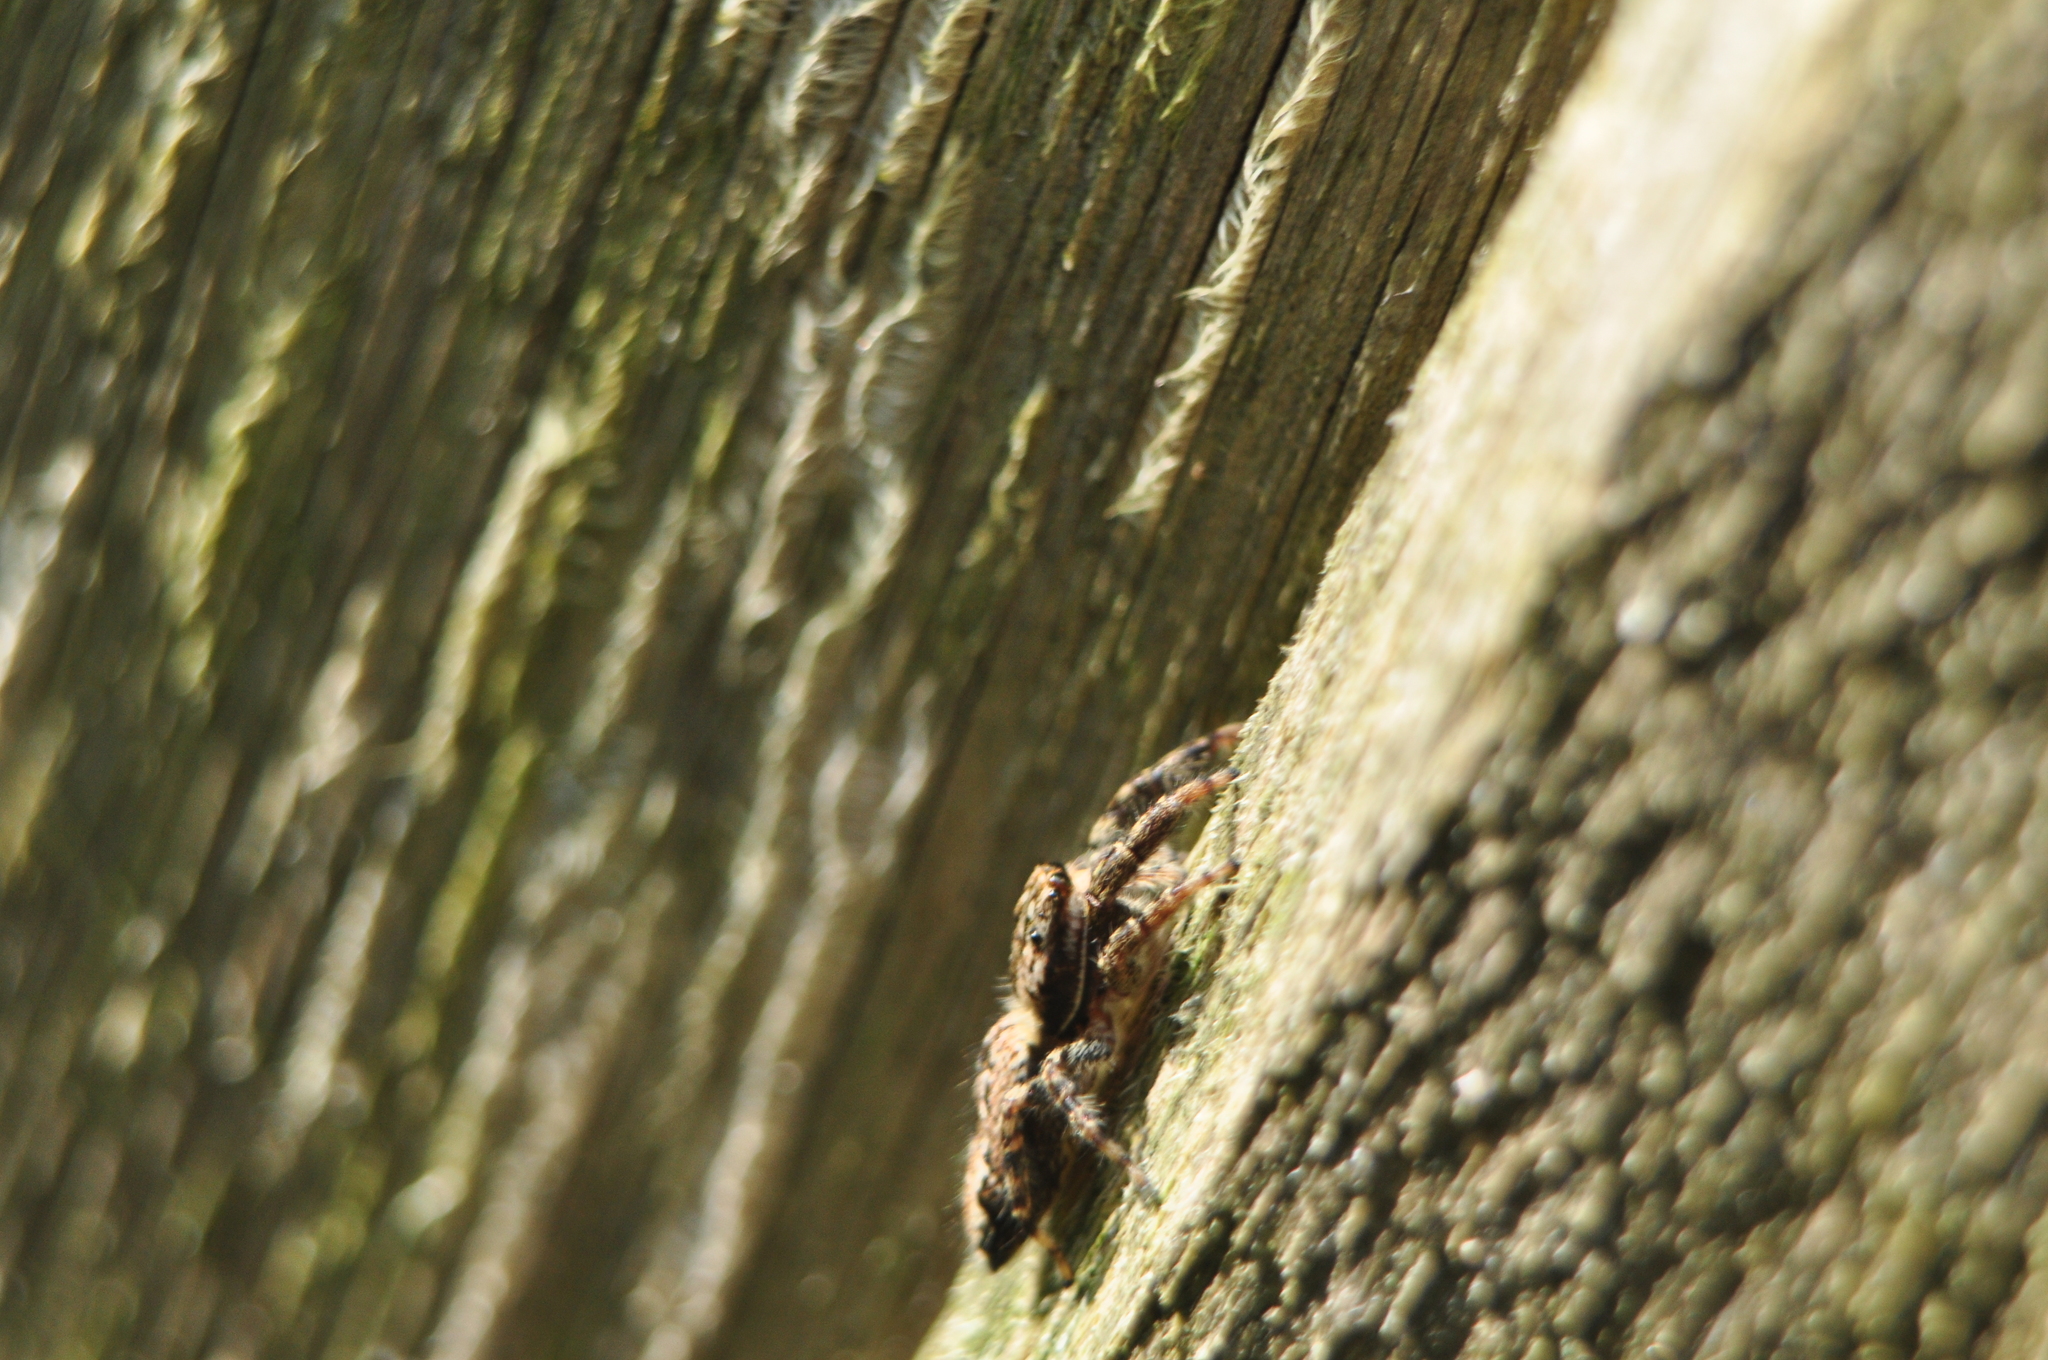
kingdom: Animalia
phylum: Arthropoda
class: Arachnida
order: Araneae
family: Salticidae
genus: Marpissa
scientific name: Marpissa muscosa
